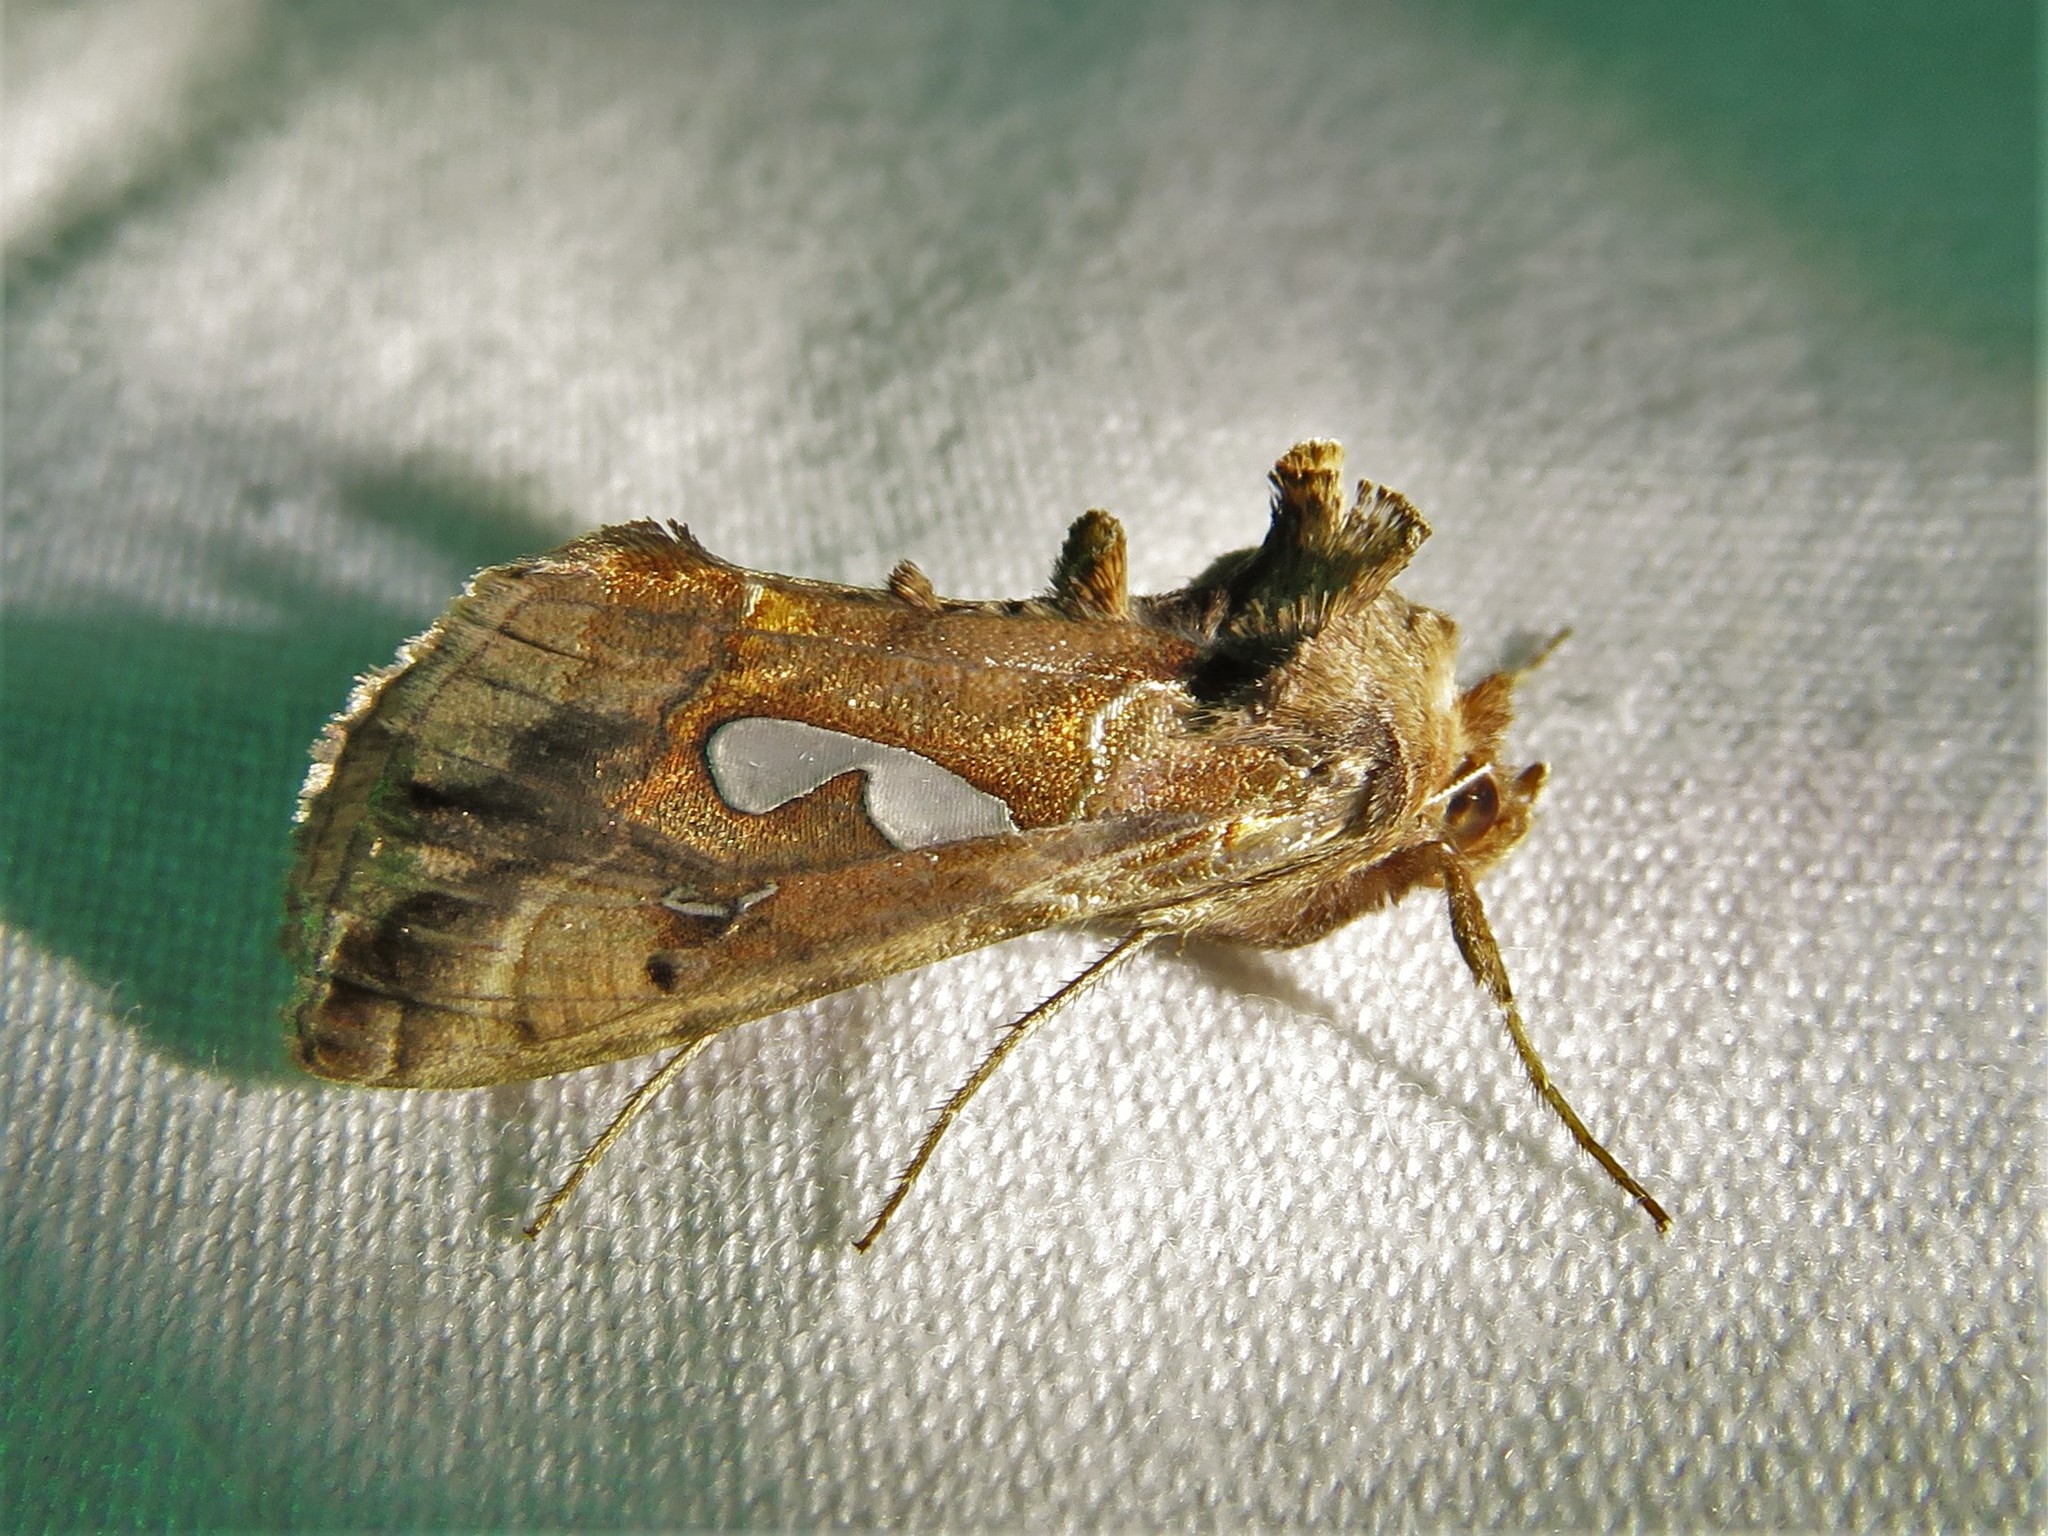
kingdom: Animalia
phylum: Arthropoda
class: Insecta
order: Lepidoptera
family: Noctuidae
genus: Megalographa
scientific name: Megalographa biloba
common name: Cutworm
